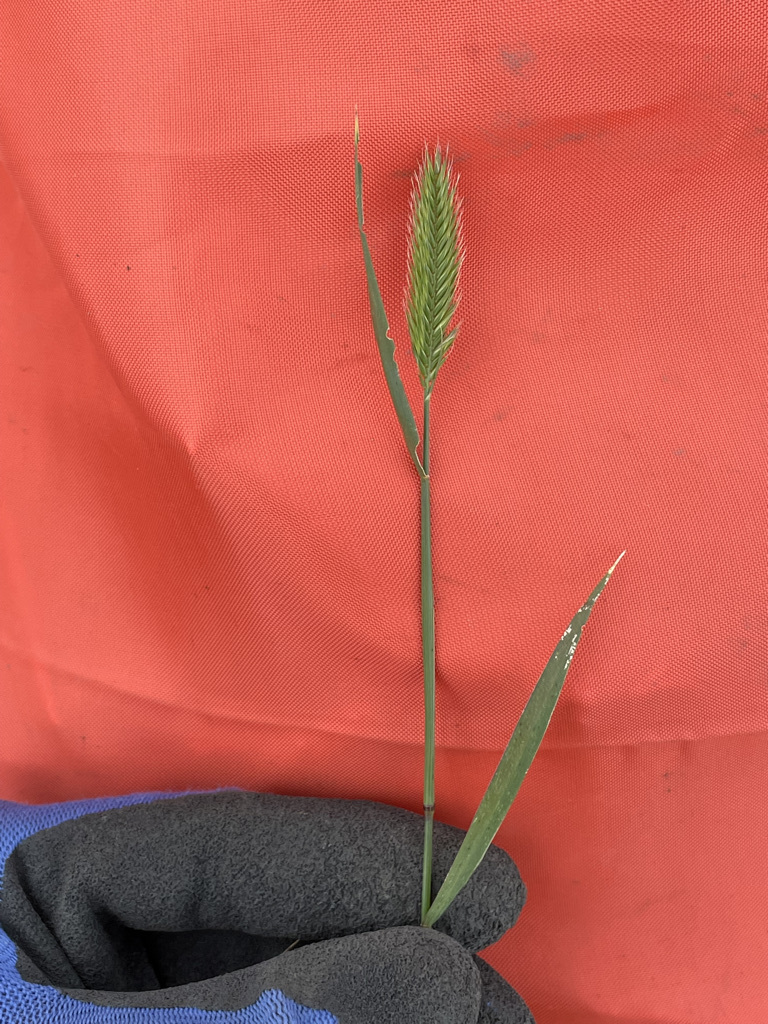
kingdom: Plantae
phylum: Tracheophyta
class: Liliopsida
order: Poales
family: Poaceae
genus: Agropyron
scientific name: Agropyron cristatum
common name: Crested wheatgrass
